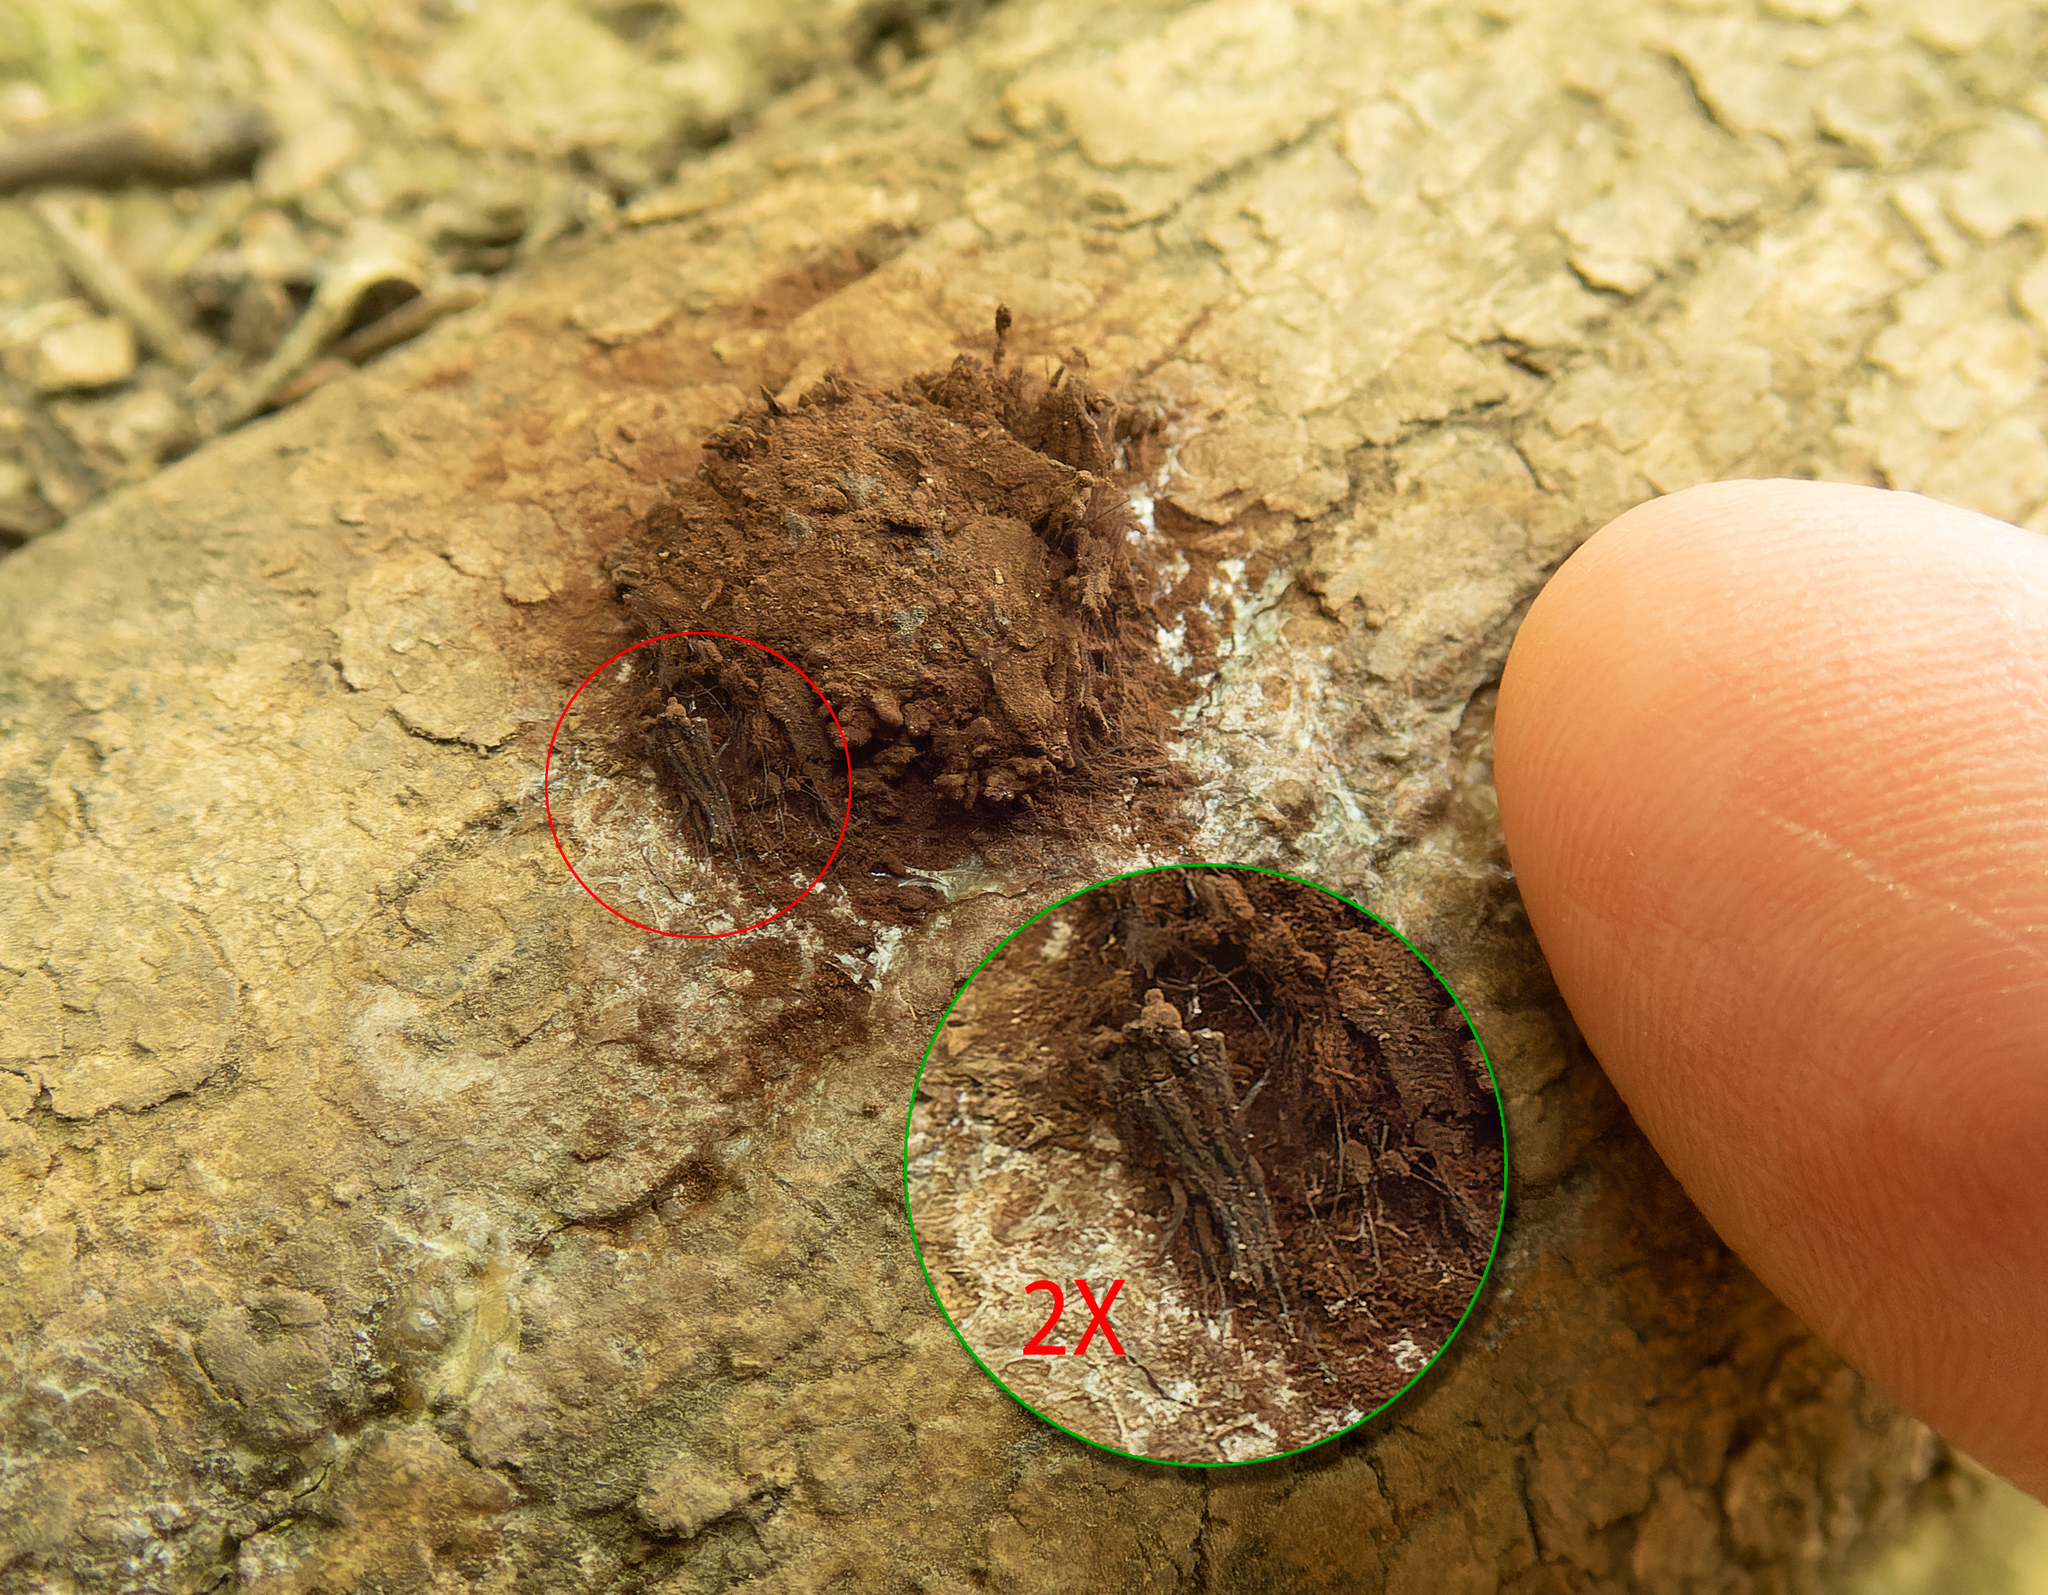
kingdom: Protozoa
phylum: Mycetozoa
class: Myxomycetes
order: Stemonitidales
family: Stemonitidaceae
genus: Stemonitis
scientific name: Stemonitis splendens
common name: Chocolate tube slime
